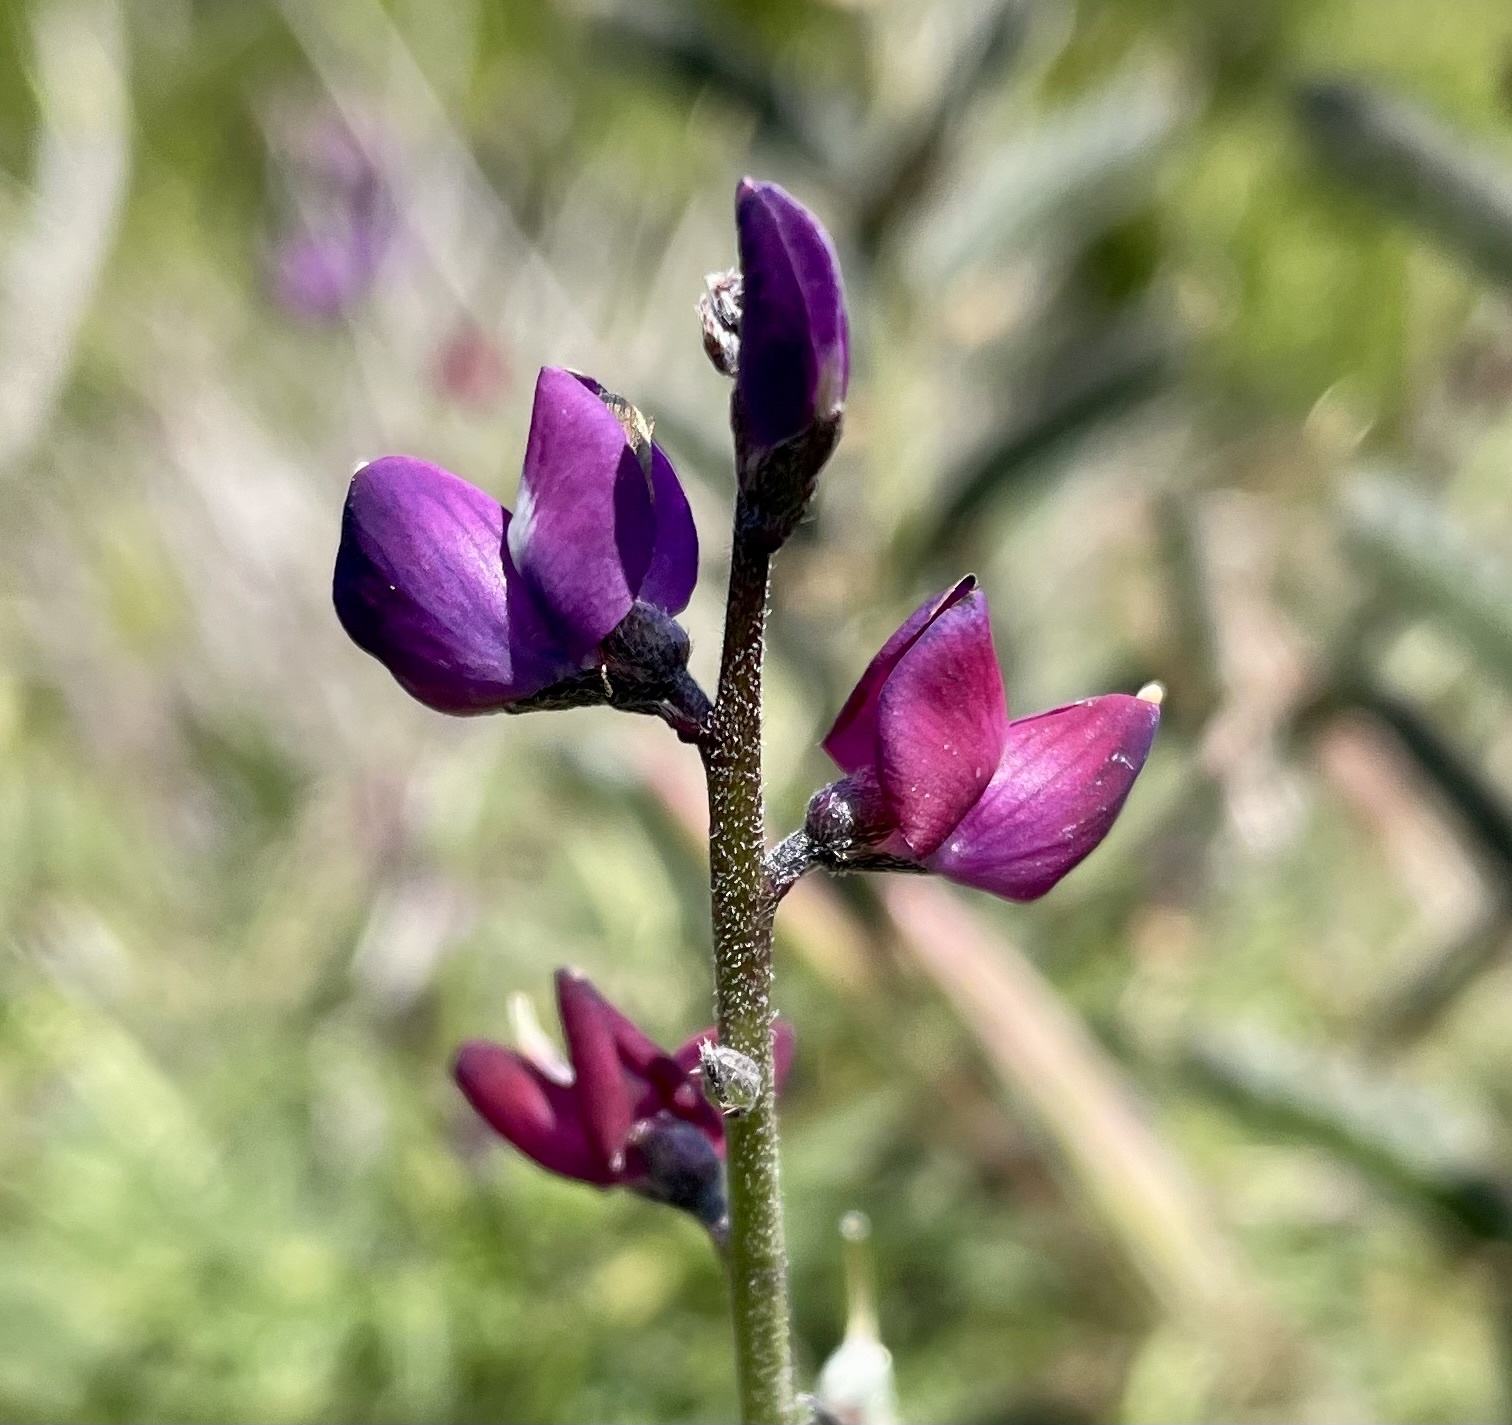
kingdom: Plantae
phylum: Tracheophyta
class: Magnoliopsida
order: Fabales
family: Fabaceae
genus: Lupinus
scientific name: Lupinus truncatus
